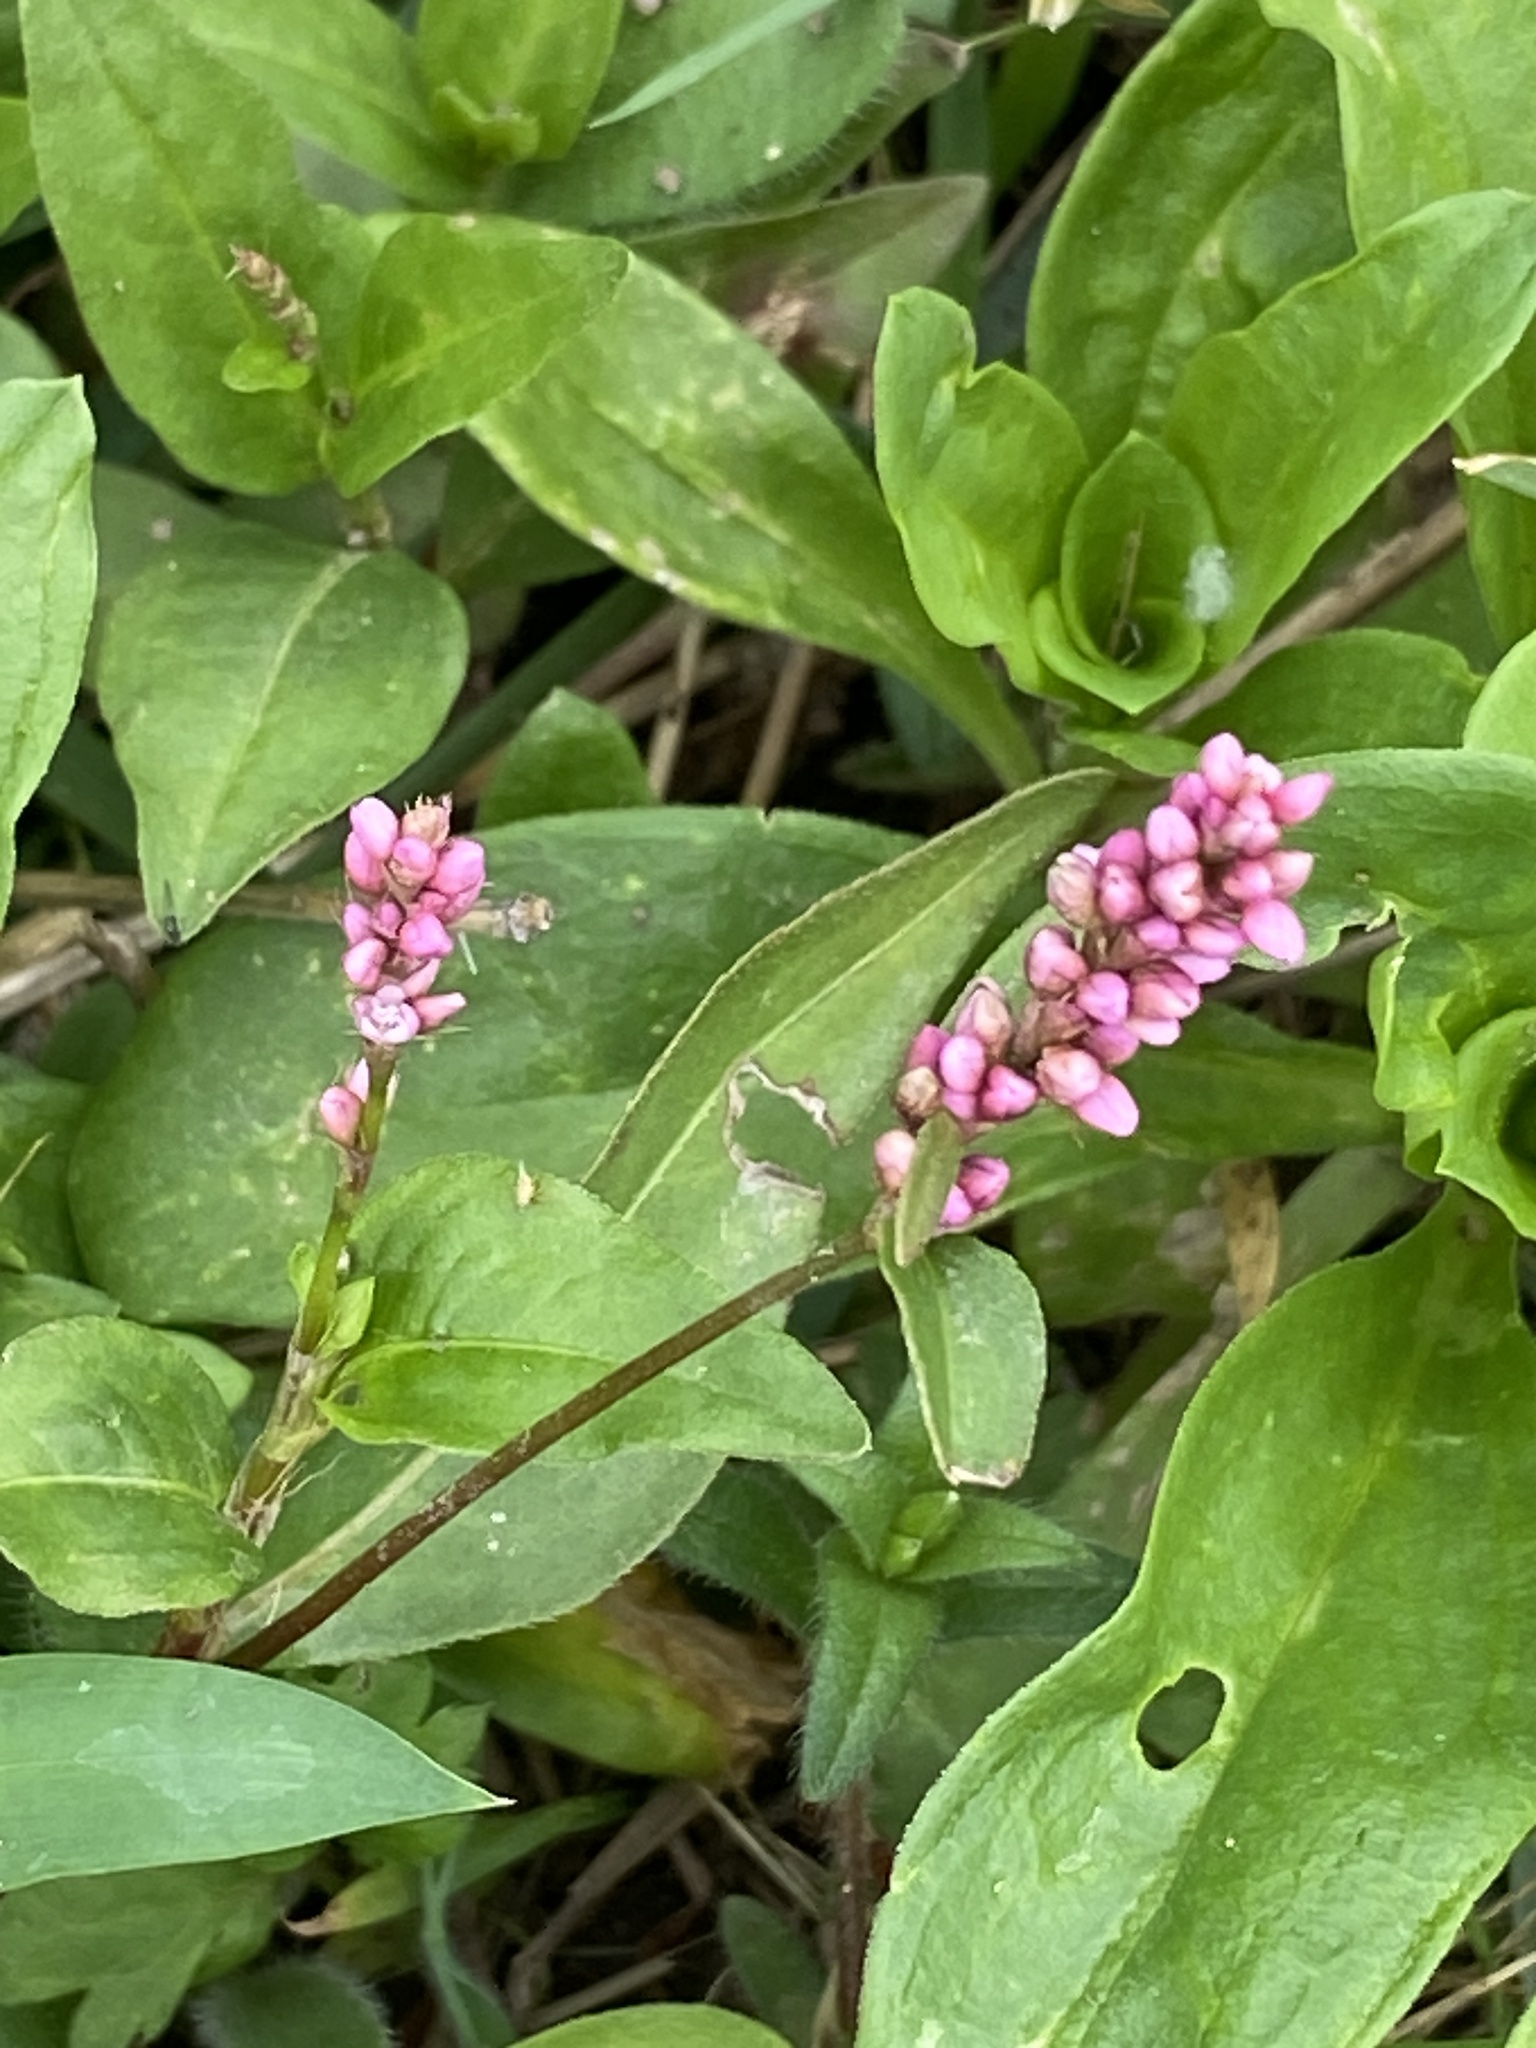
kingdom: Plantae
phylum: Tracheophyta
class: Magnoliopsida
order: Caryophyllales
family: Polygonaceae
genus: Persicaria
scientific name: Persicaria longiseta
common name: Bristly lady's-thumb
